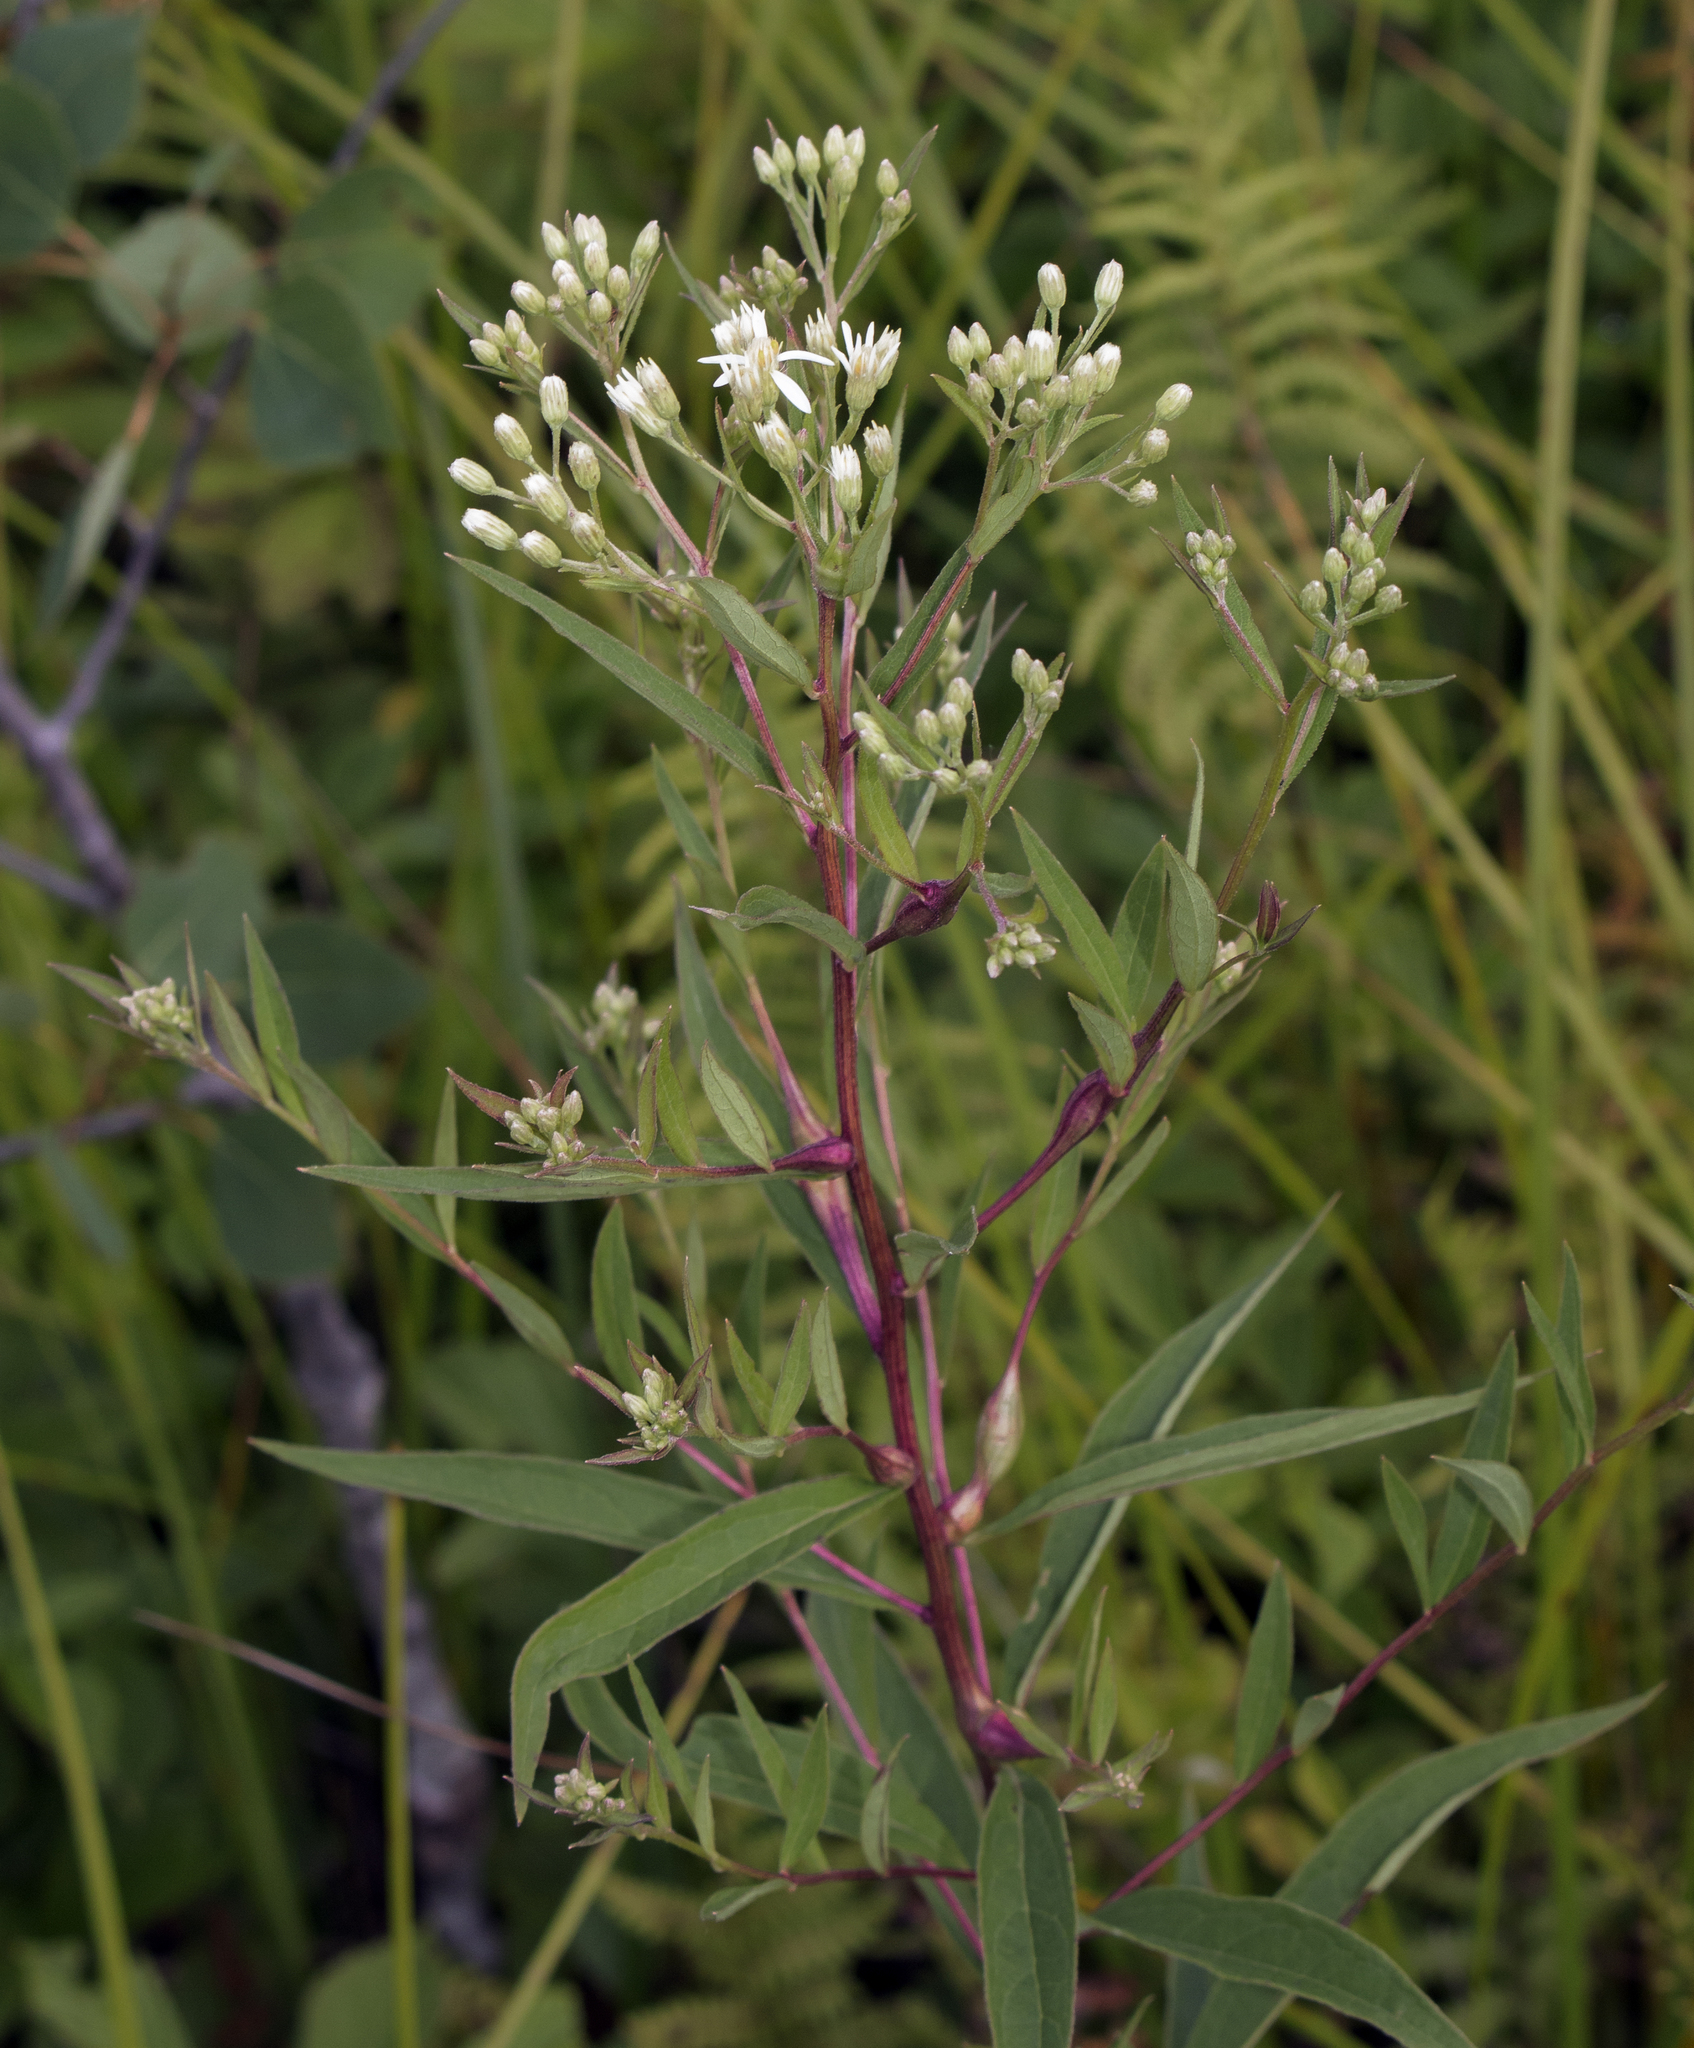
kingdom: Plantae
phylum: Tracheophyta
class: Magnoliopsida
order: Asterales
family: Asteraceae
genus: Doellingeria
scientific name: Doellingeria umbellata
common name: Flat-top white aster
